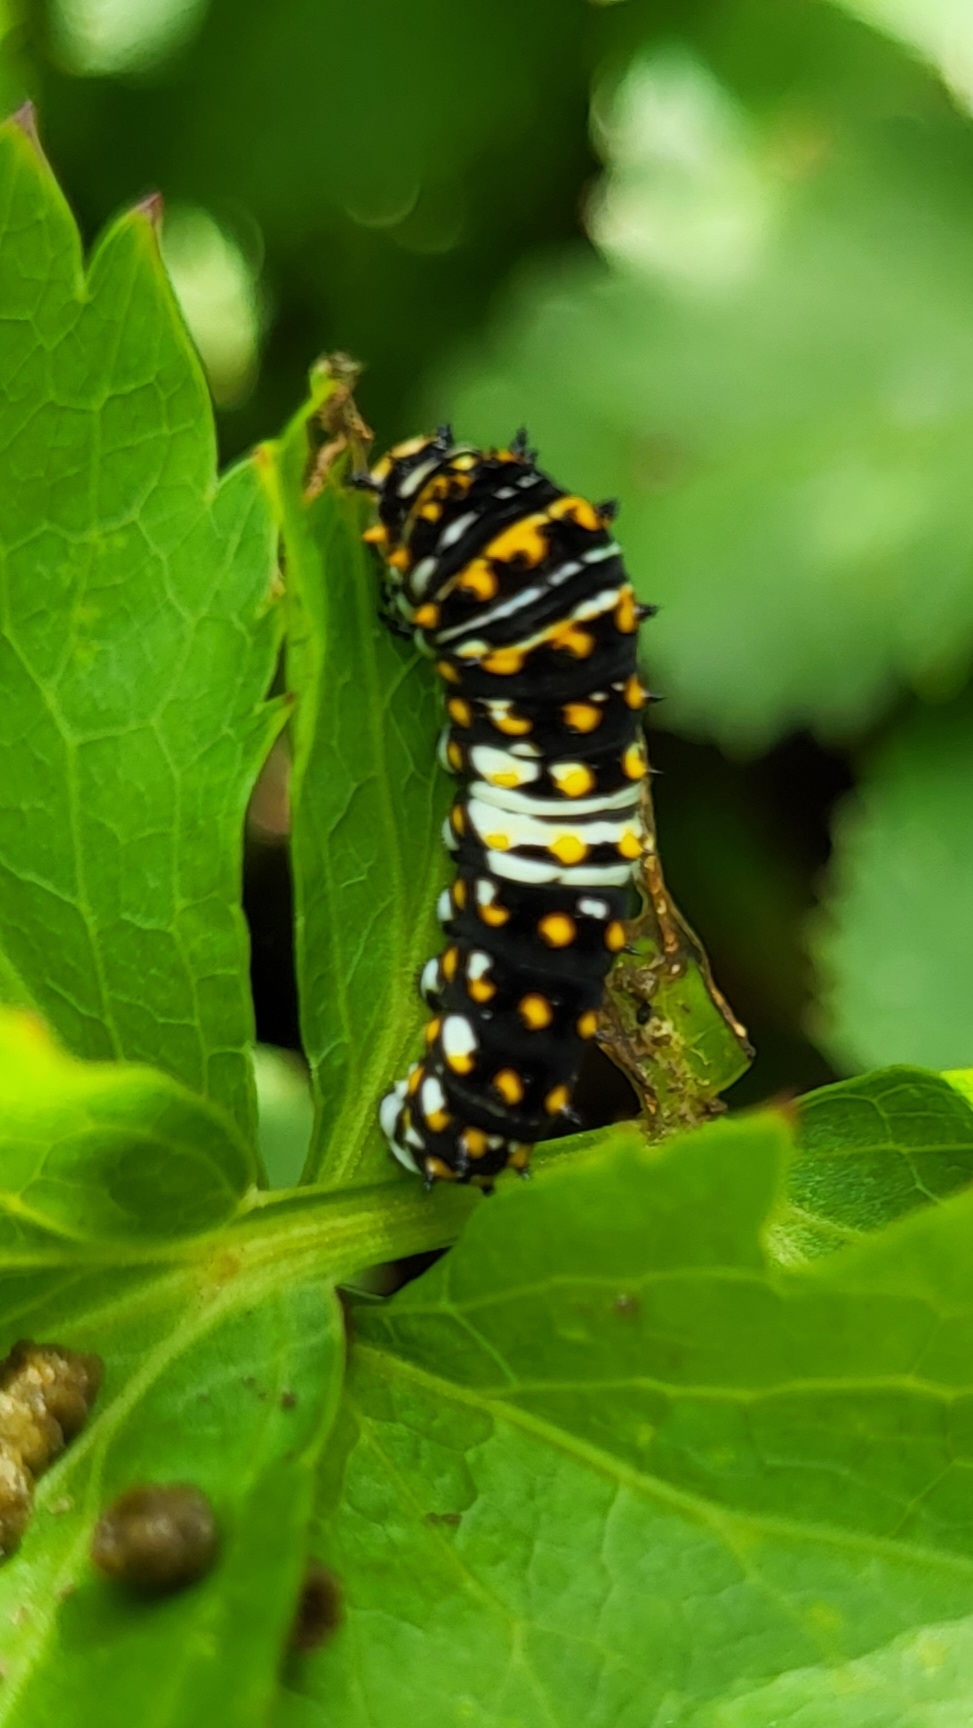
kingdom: Animalia
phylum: Arthropoda
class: Insecta
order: Lepidoptera
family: Papilionidae
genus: Papilio
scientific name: Papilio polyxenes
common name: Black swallowtail
